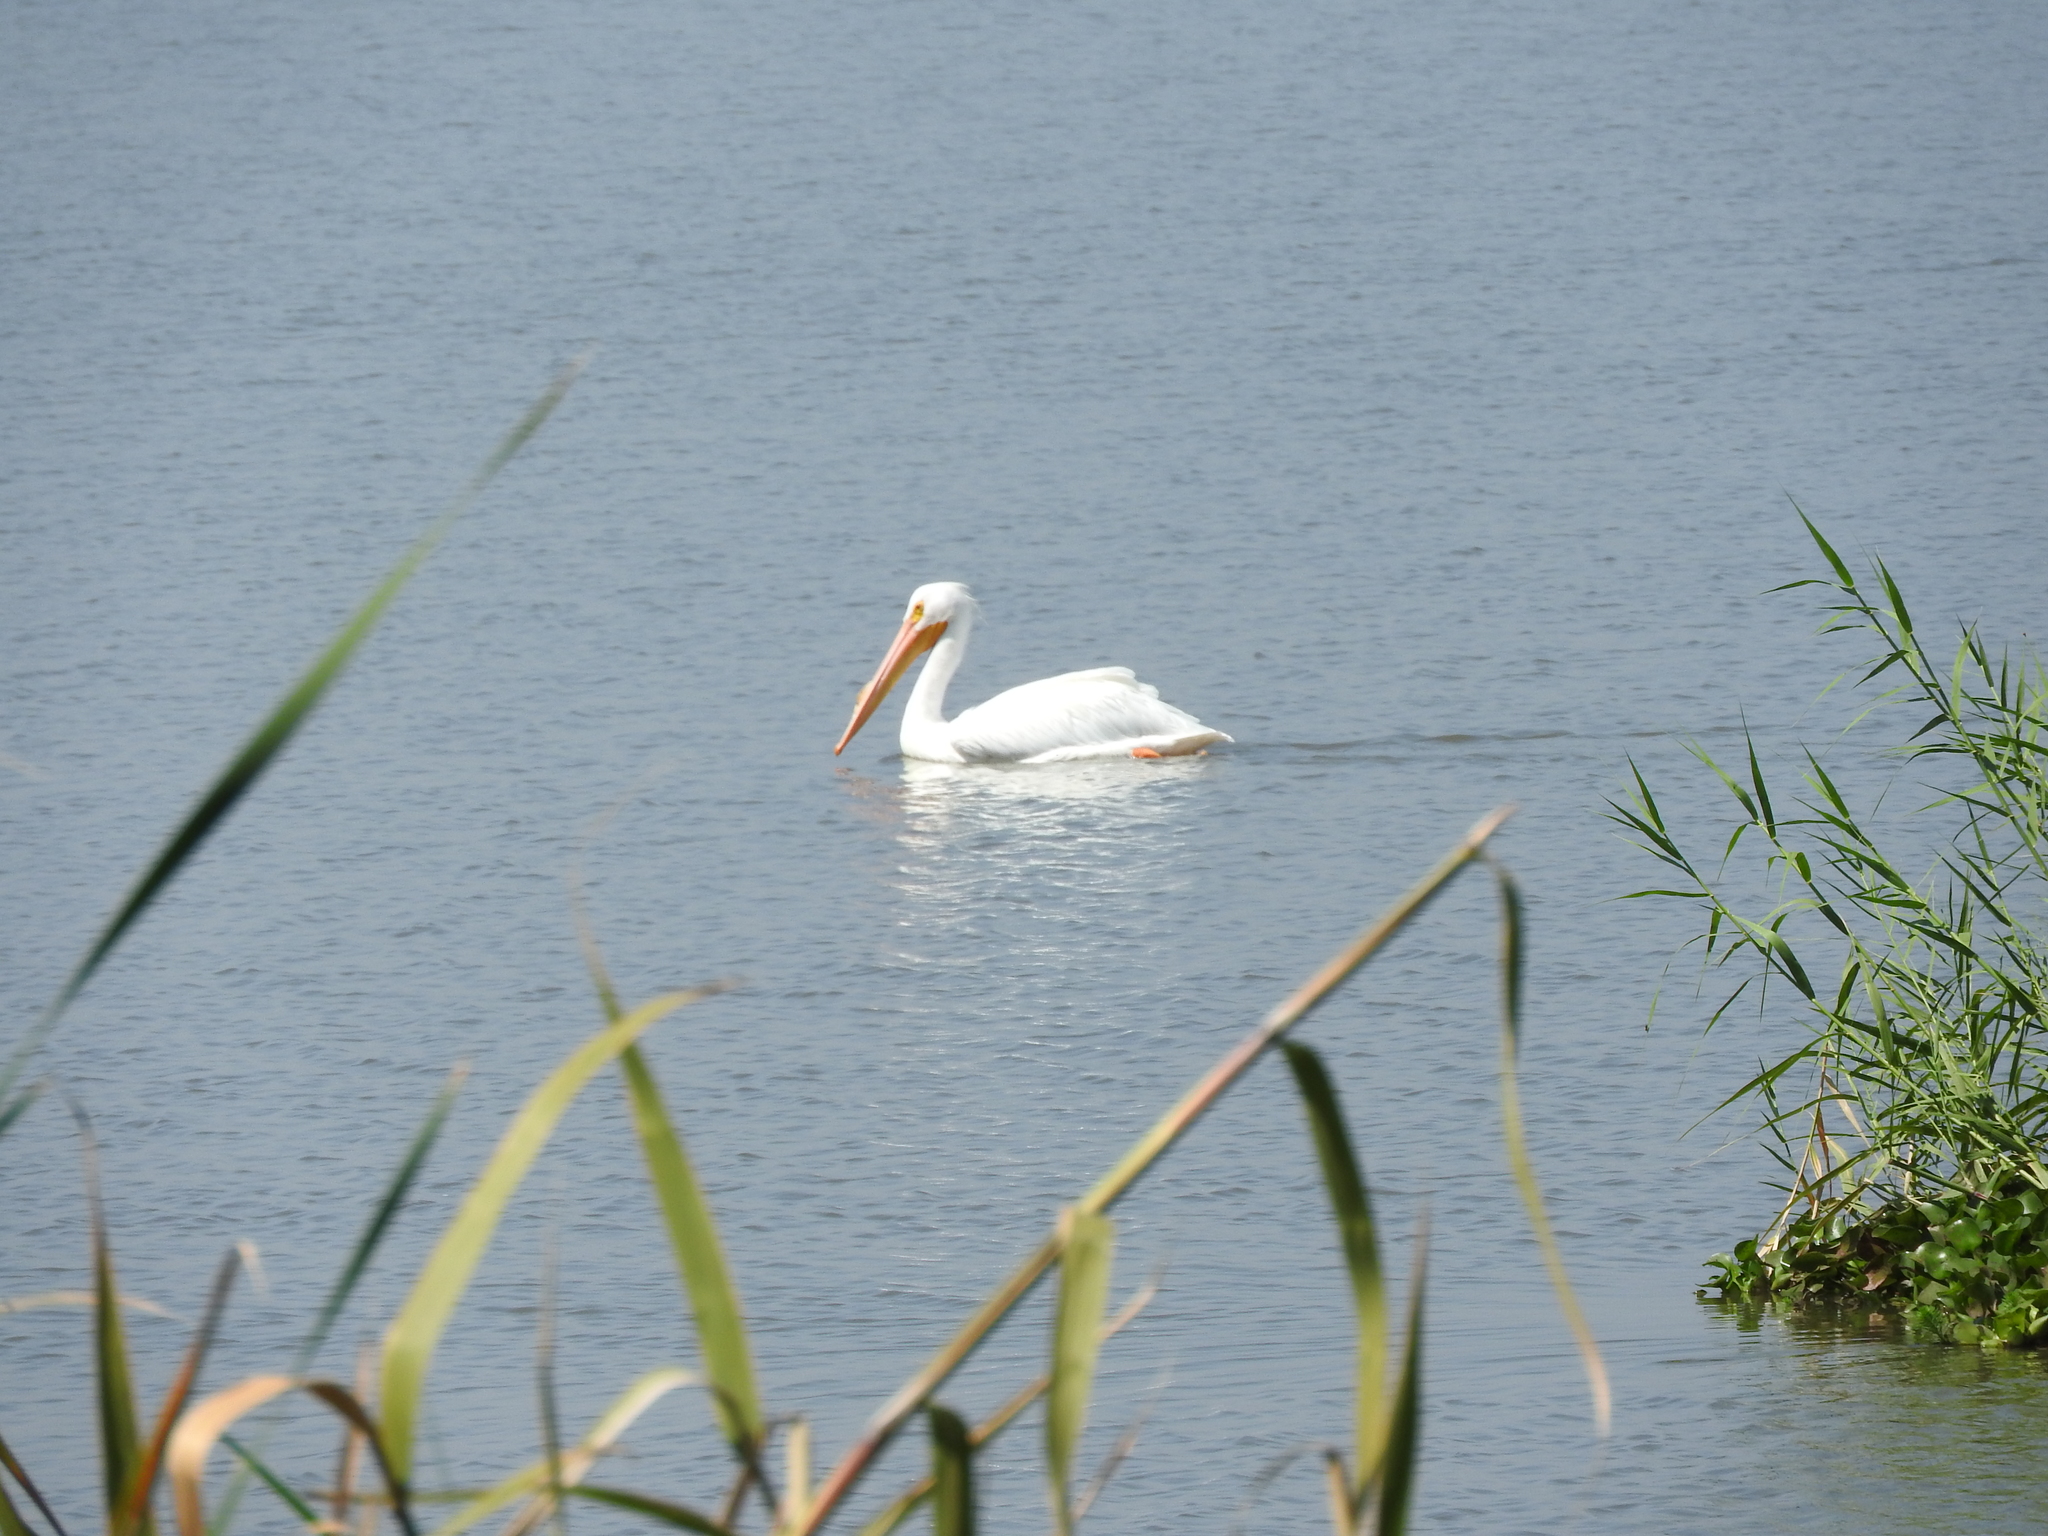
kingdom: Animalia
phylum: Chordata
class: Aves
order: Pelecaniformes
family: Pelecanidae
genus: Pelecanus
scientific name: Pelecanus erythrorhynchos
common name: American white pelican
